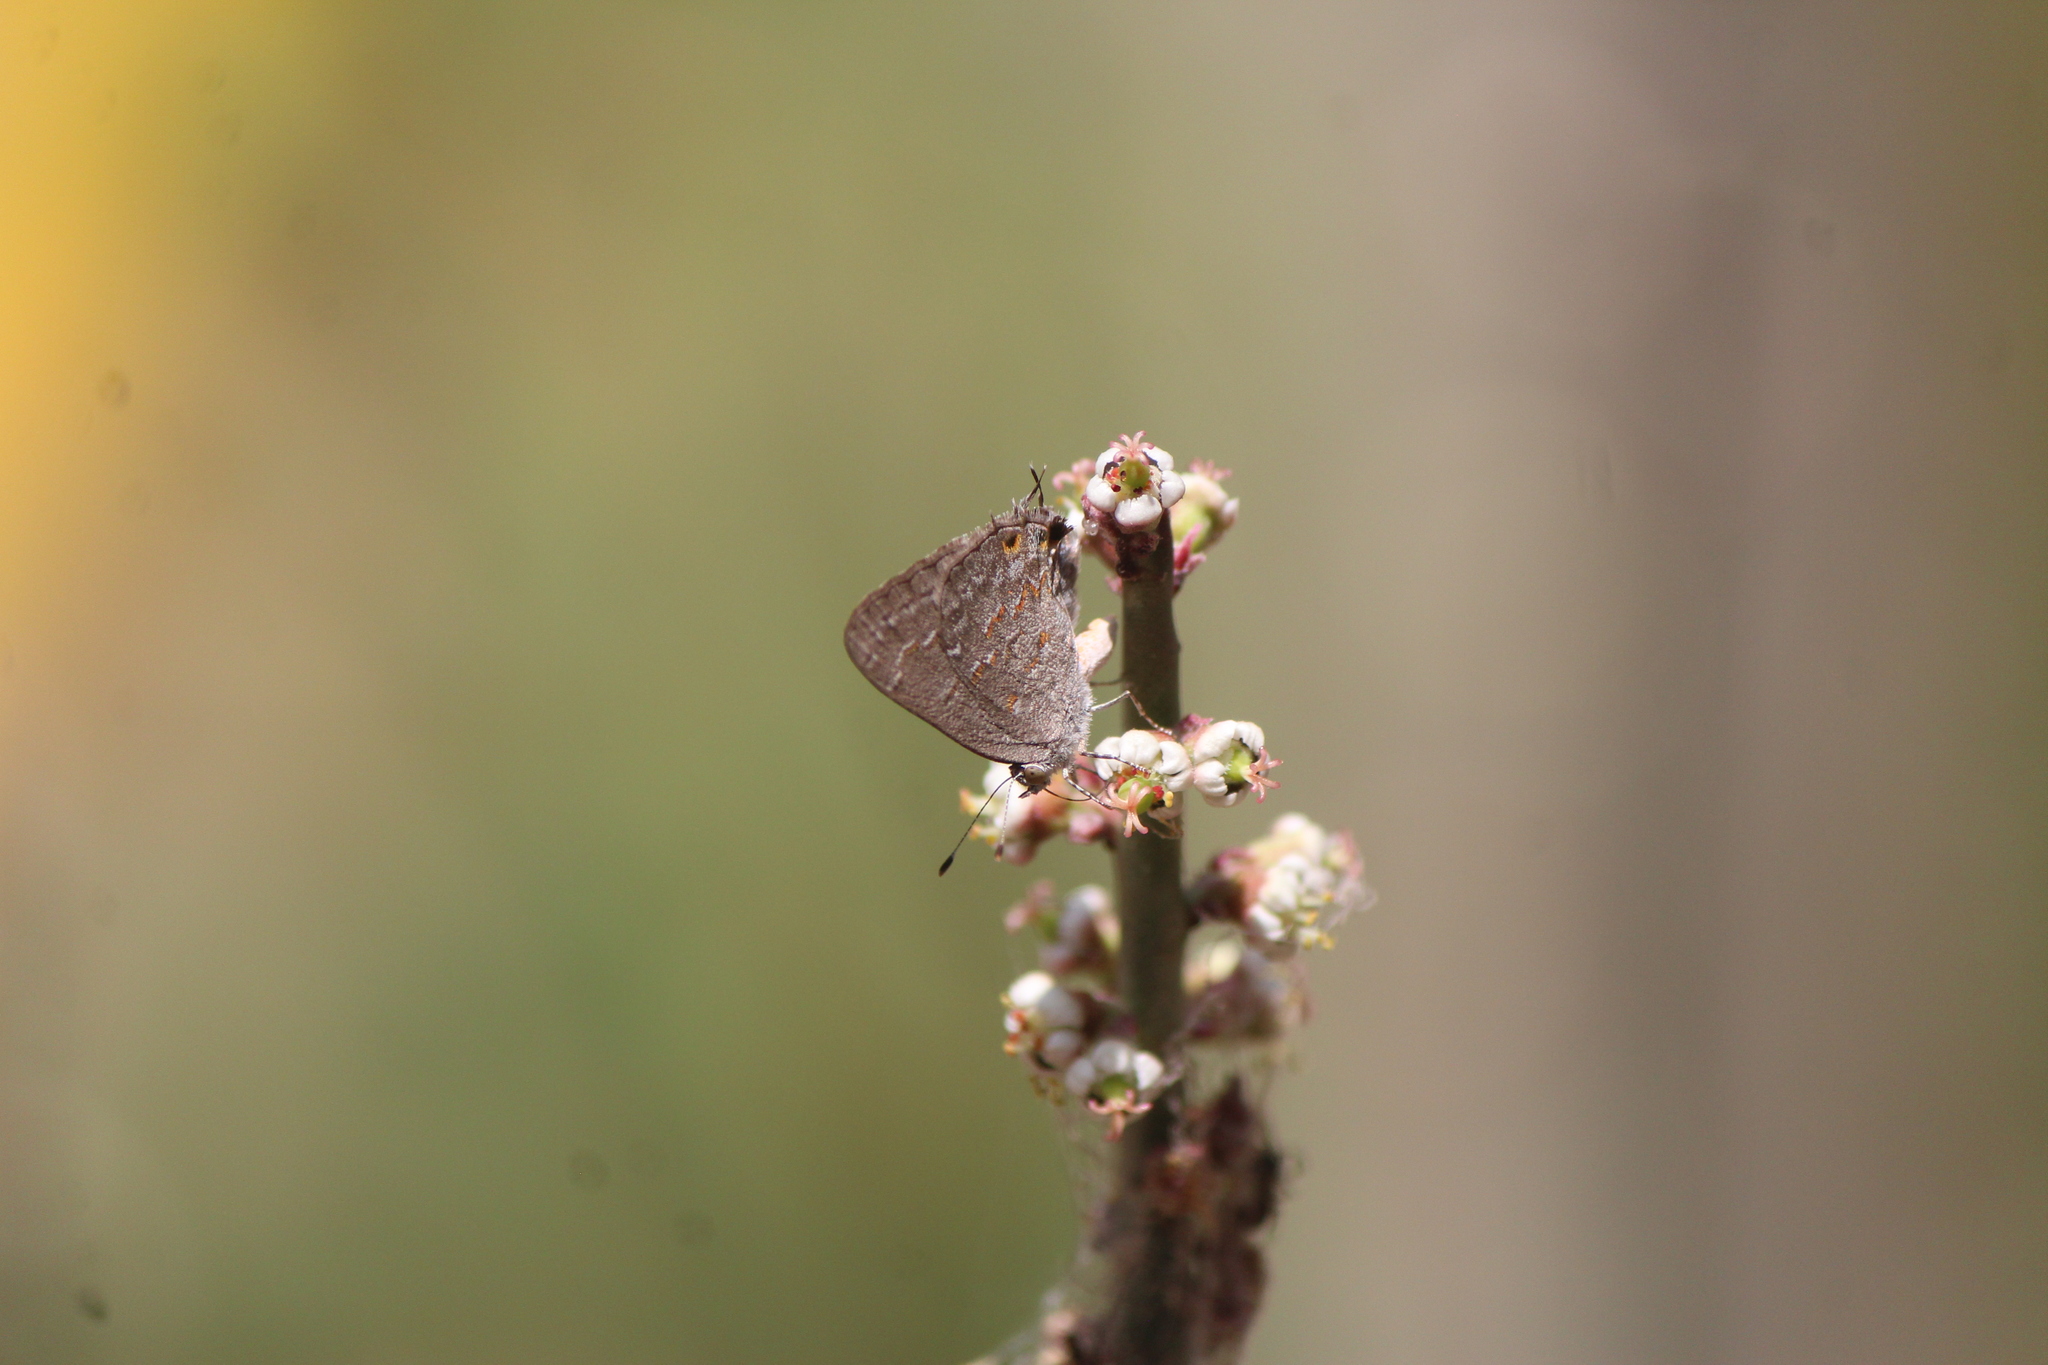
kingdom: Animalia
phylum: Arthropoda
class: Insecta
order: Lepidoptera
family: Lycaenidae
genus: Ministrymon
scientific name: Ministrymon leda
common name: Leda ministreak
